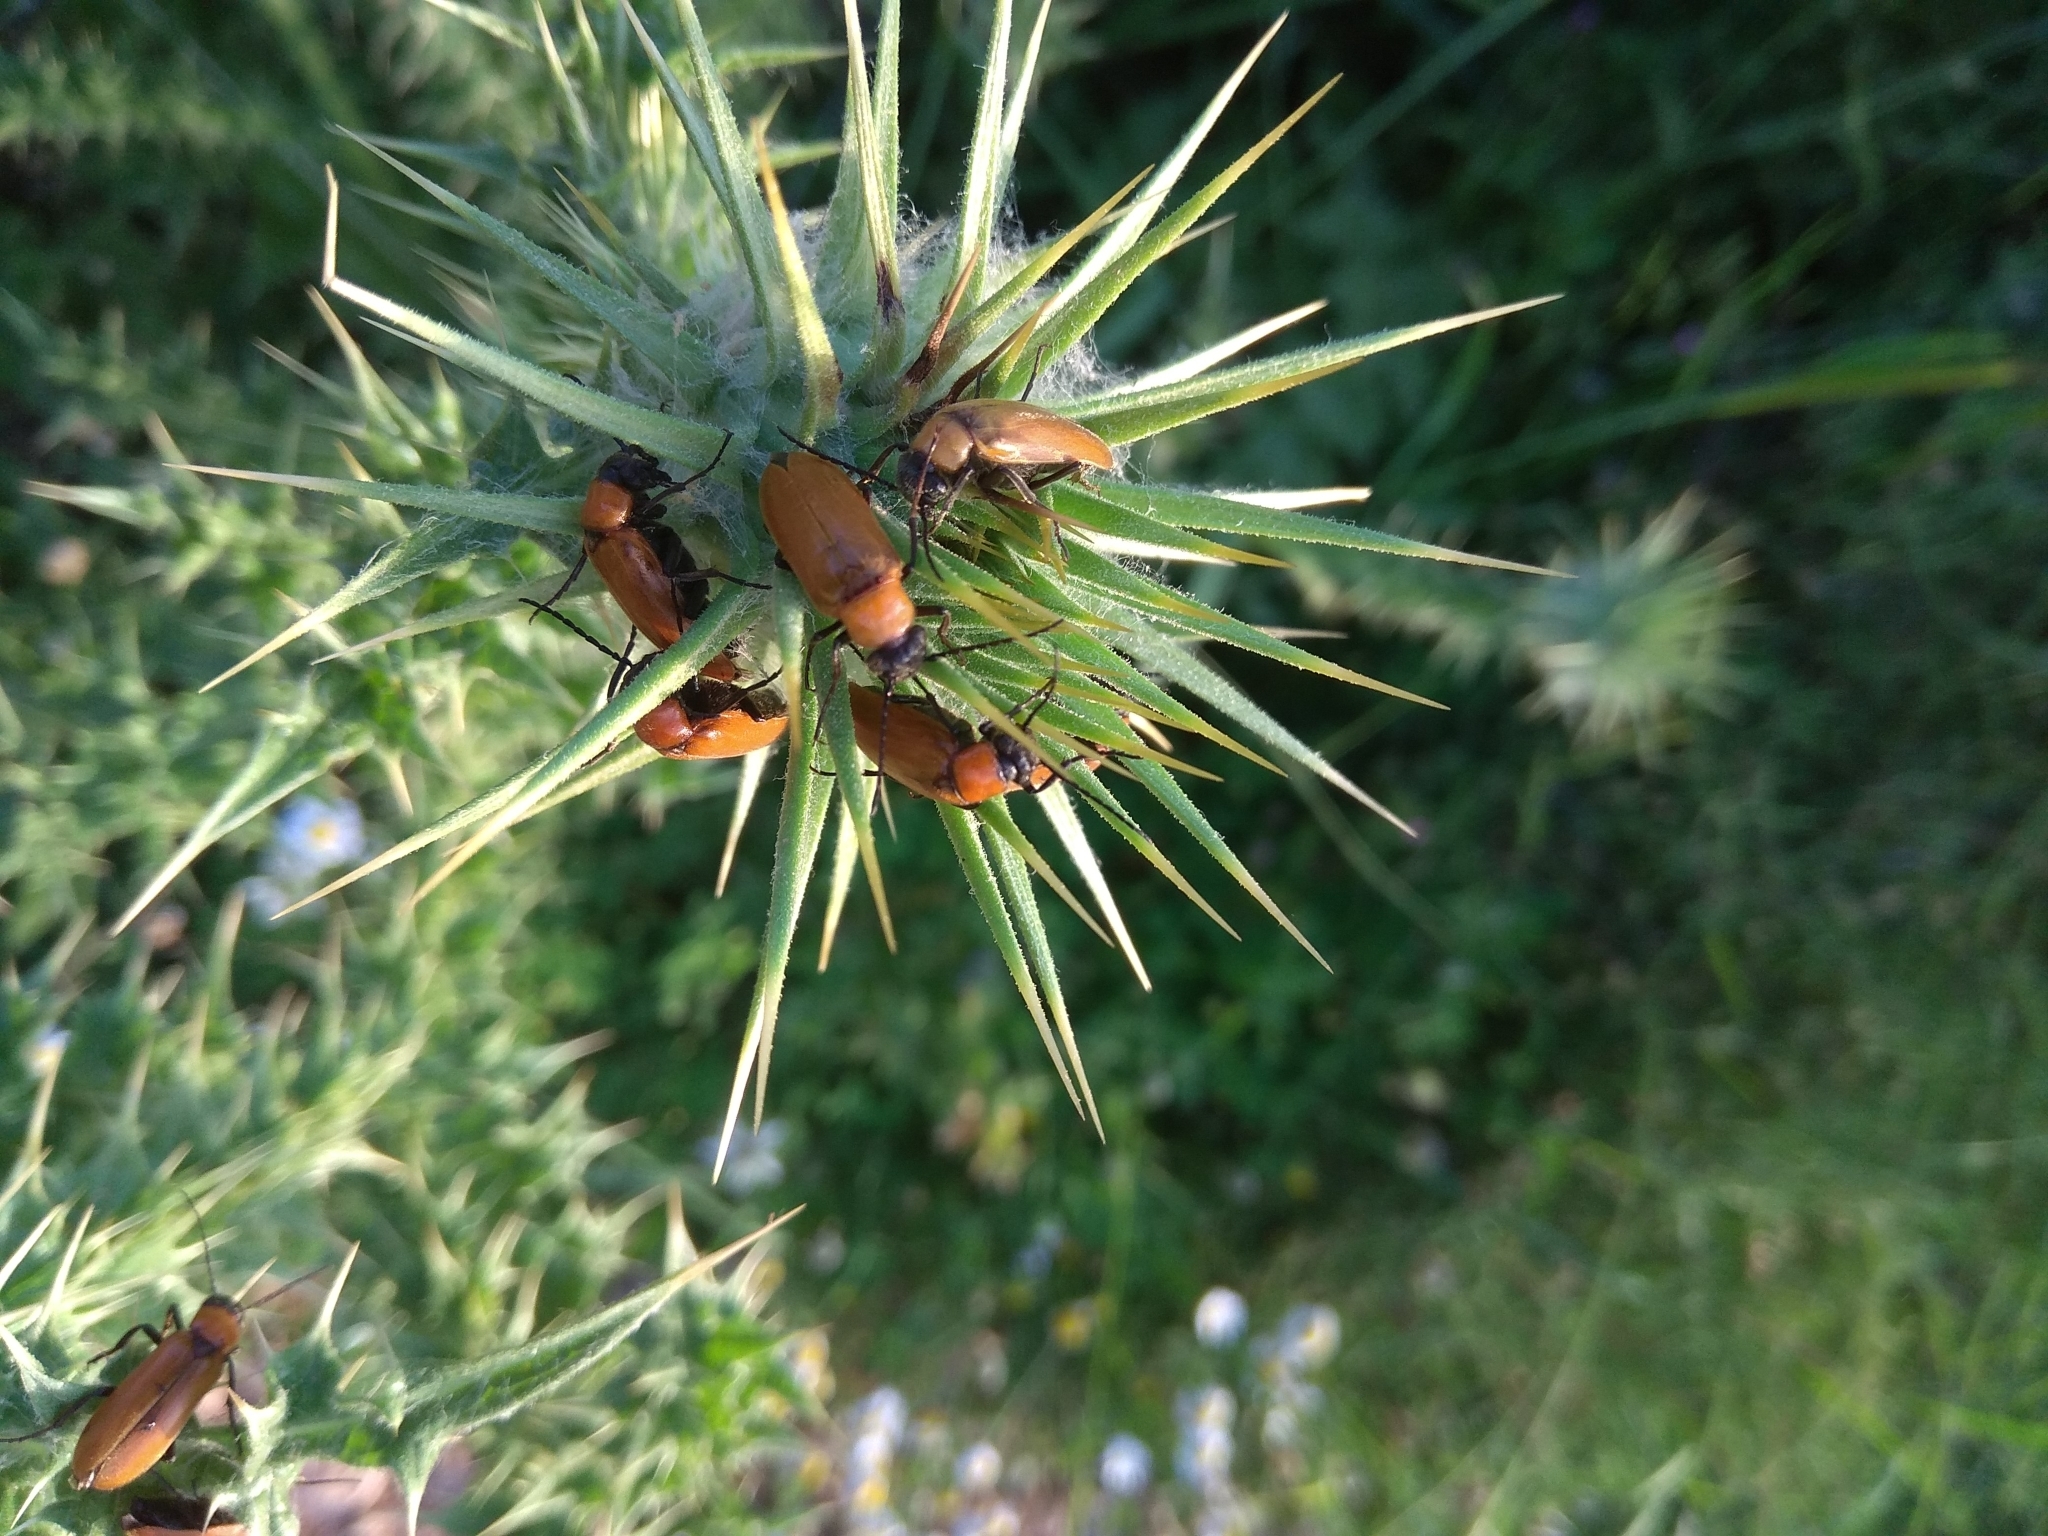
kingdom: Animalia
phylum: Arthropoda
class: Insecta
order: Coleoptera
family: Meloidae
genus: Zonitis
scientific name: Zonitis nana
